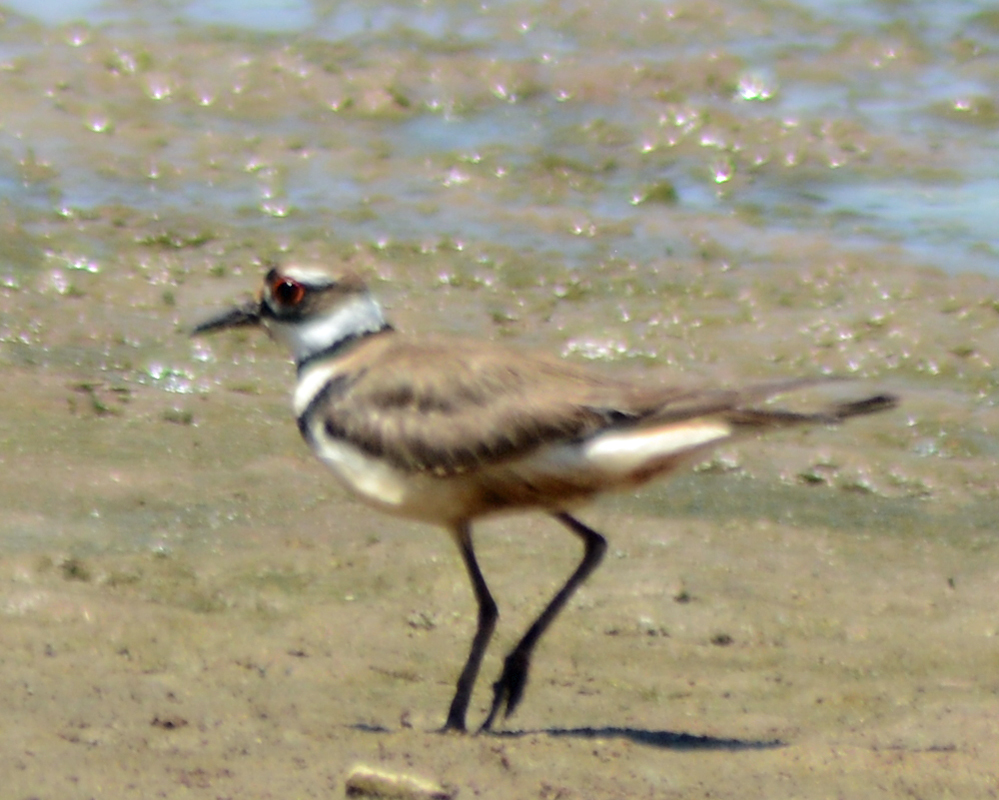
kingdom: Animalia
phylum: Chordata
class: Aves
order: Charadriiformes
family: Charadriidae
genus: Charadrius
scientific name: Charadrius vociferus
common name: Killdeer
